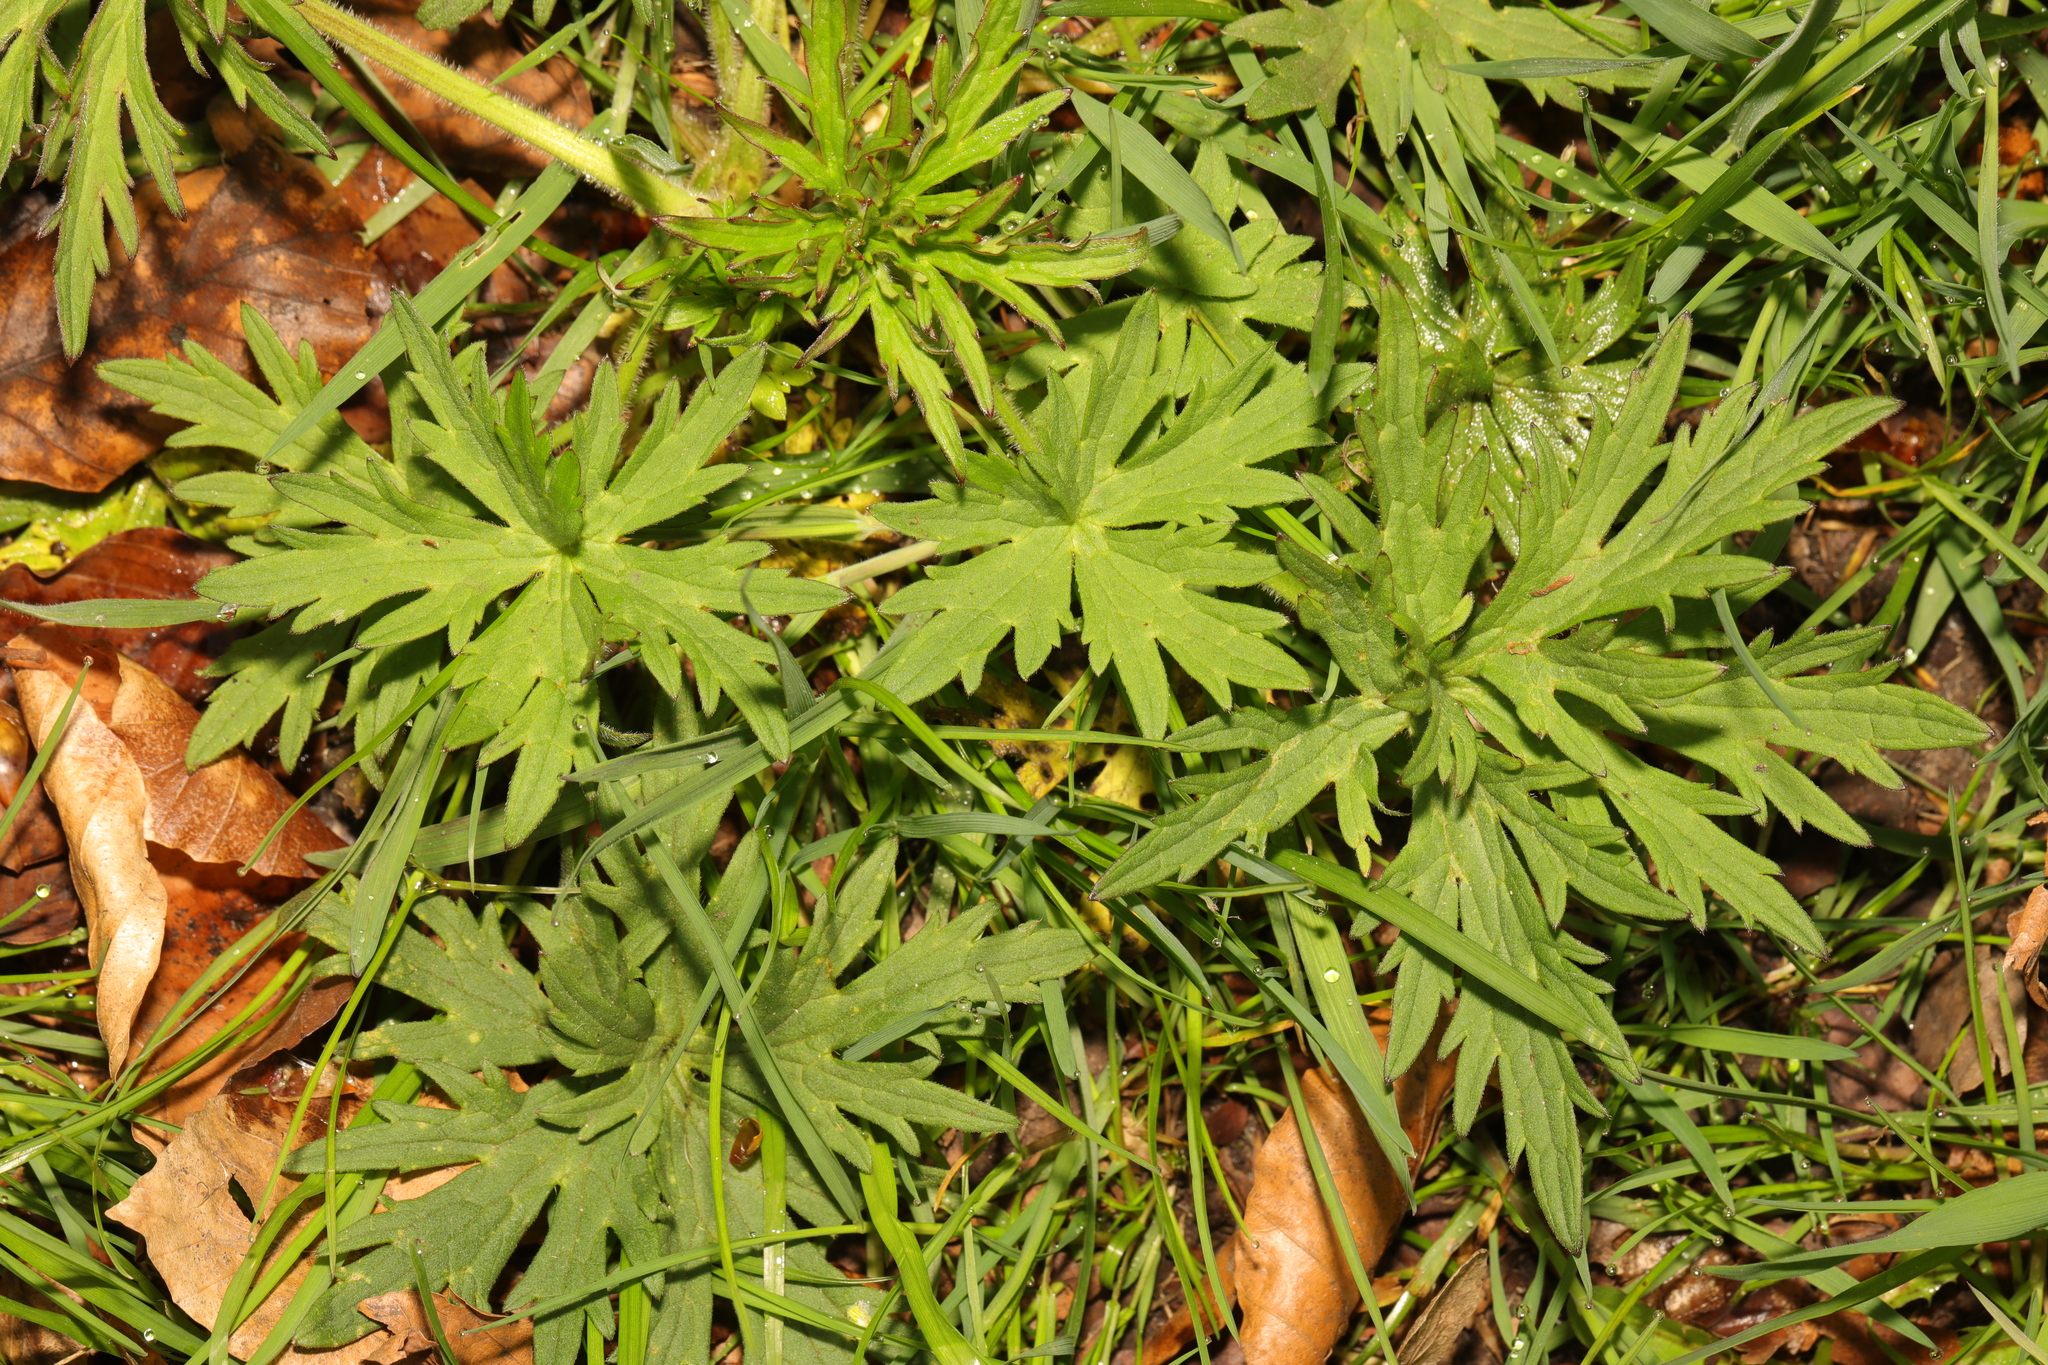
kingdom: Plantae
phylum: Tracheophyta
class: Magnoliopsida
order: Ranunculales
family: Ranunculaceae
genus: Ranunculus
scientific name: Ranunculus acris
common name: Meadow buttercup
